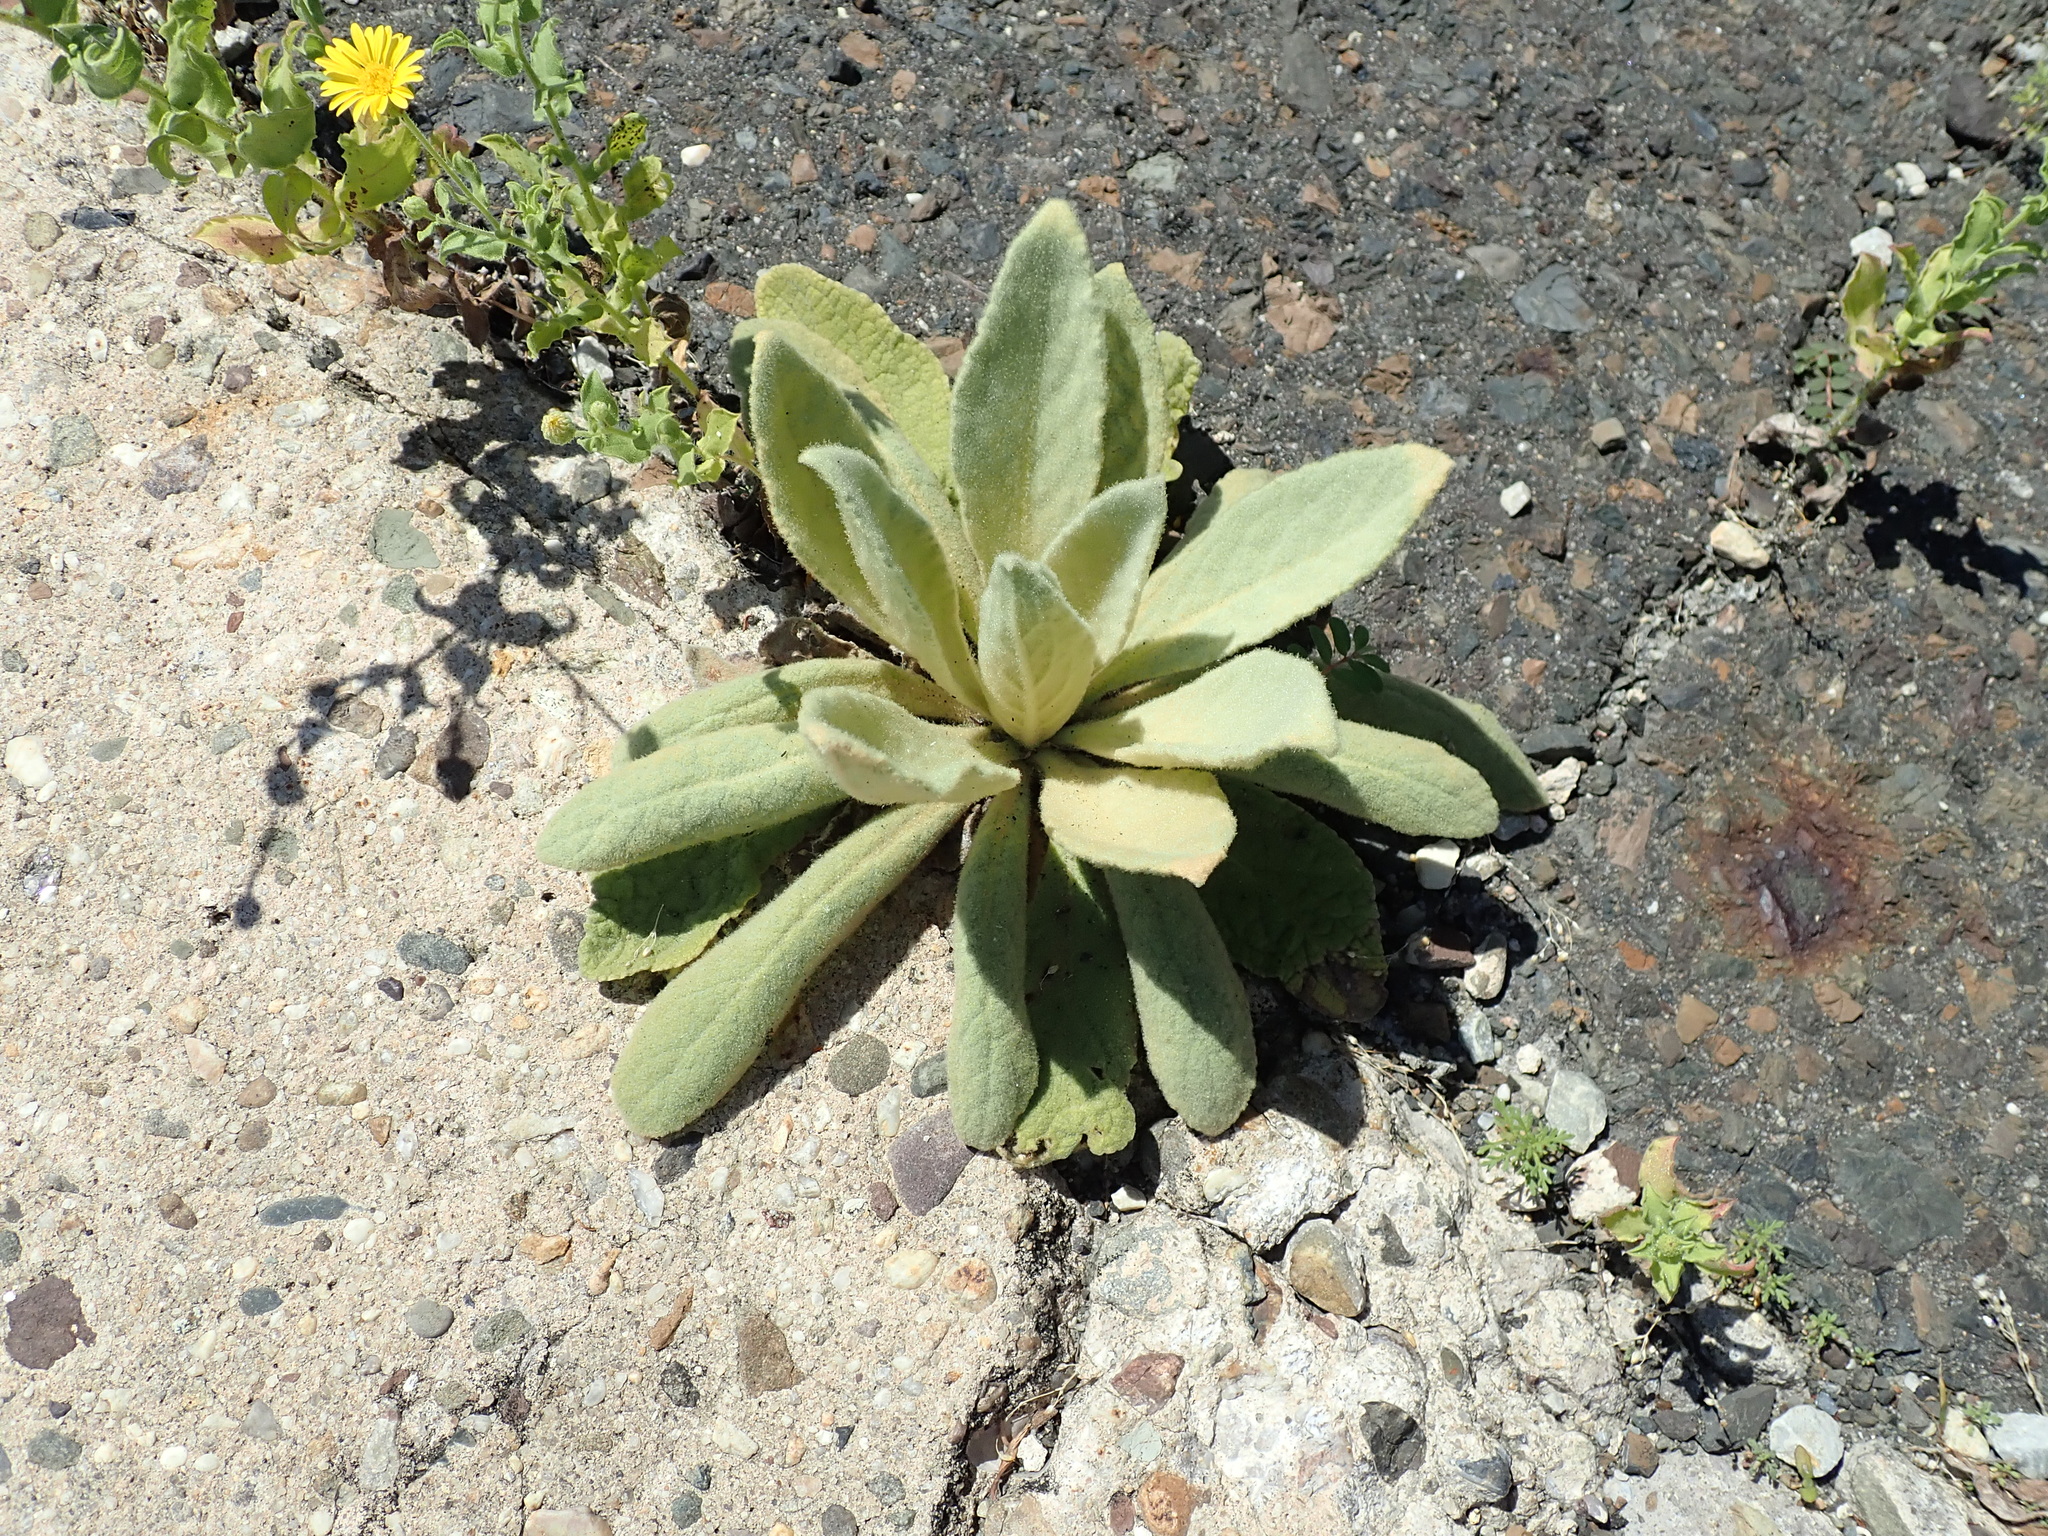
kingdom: Plantae
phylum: Tracheophyta
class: Magnoliopsida
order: Lamiales
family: Scrophulariaceae
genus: Verbascum
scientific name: Verbascum thapsus
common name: Common mullein
